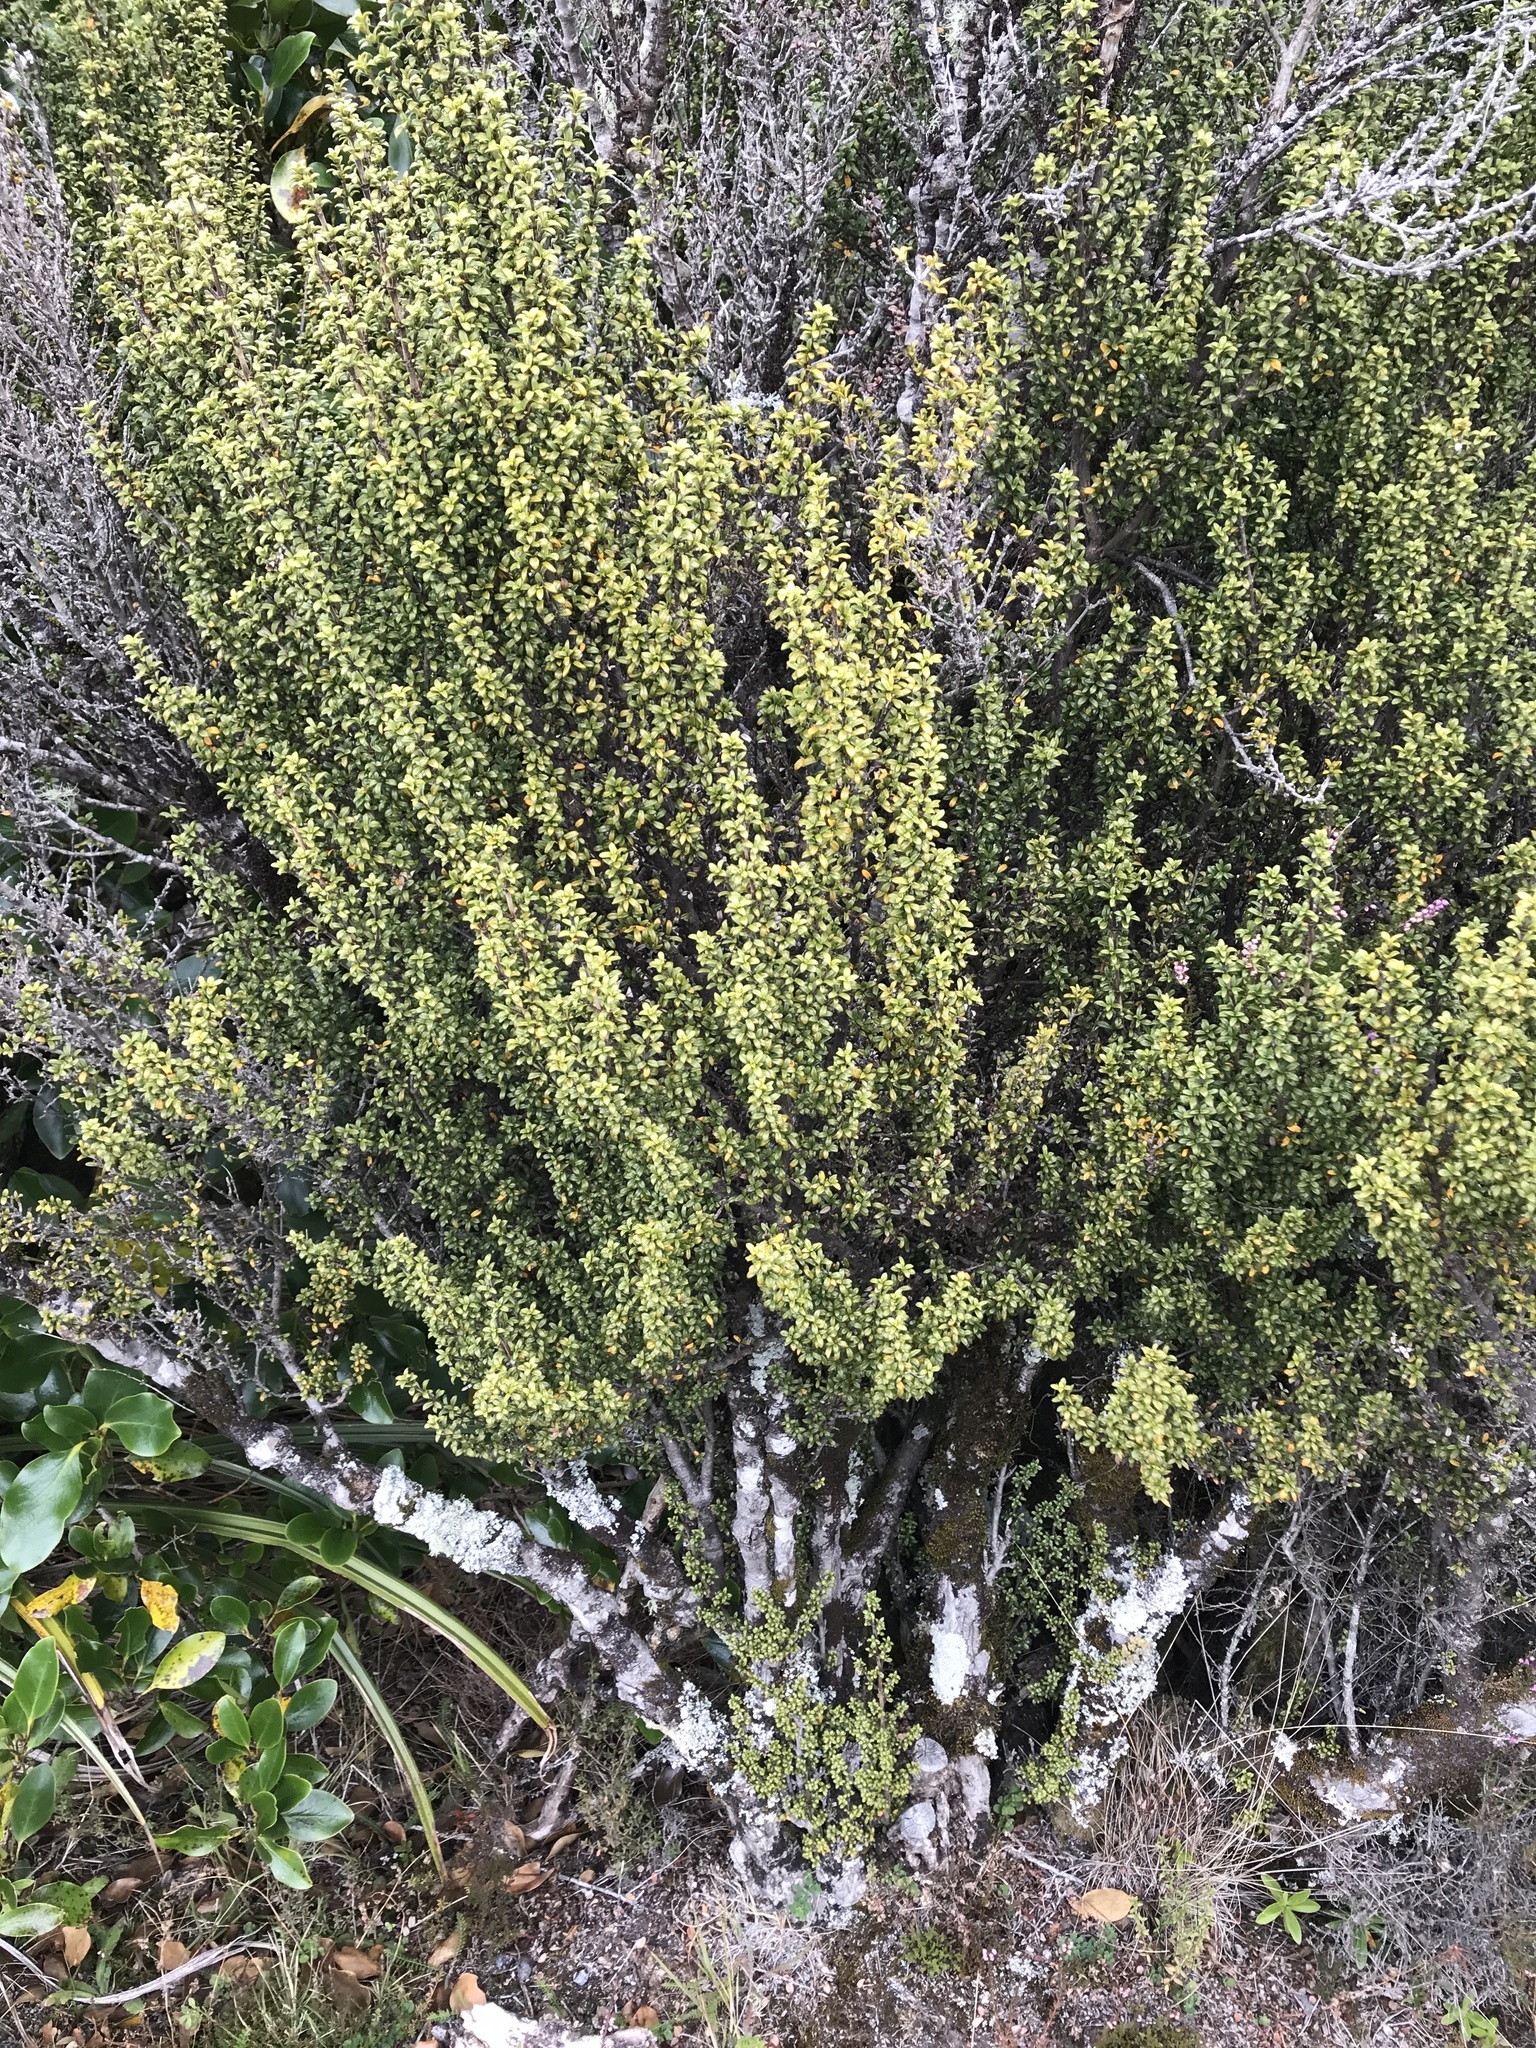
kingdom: Plantae
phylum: Tracheophyta
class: Magnoliopsida
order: Gentianales
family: Rubiaceae
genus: Coprosma
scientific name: Coprosma pseudocuneata
